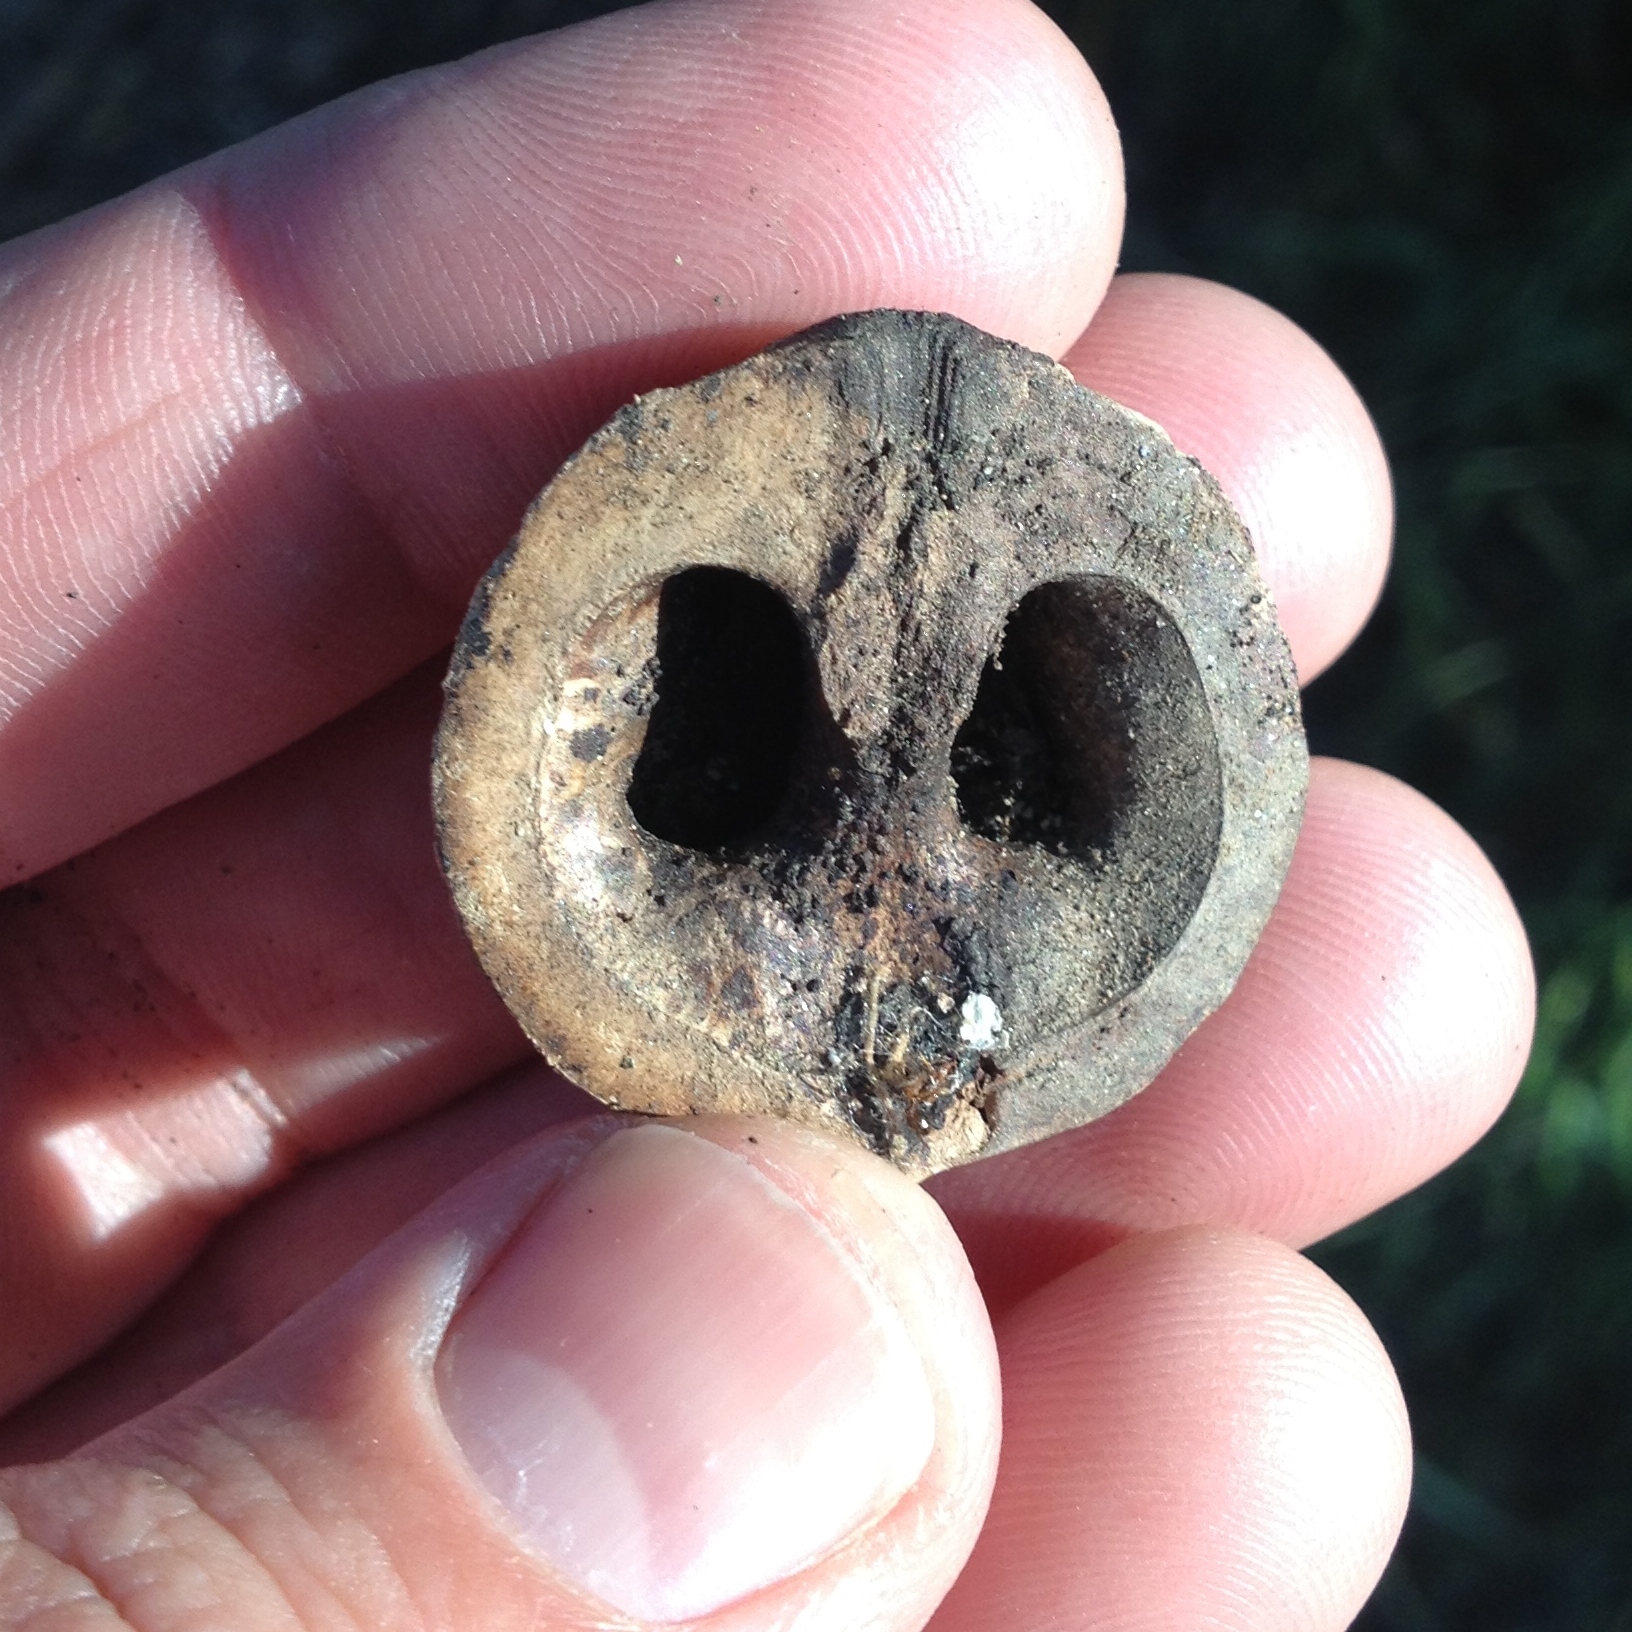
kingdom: Plantae
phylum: Tracheophyta
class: Magnoliopsida
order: Fagales
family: Juglandaceae
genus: Juglans
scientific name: Juglans hindsii
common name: Northern california black walnut
